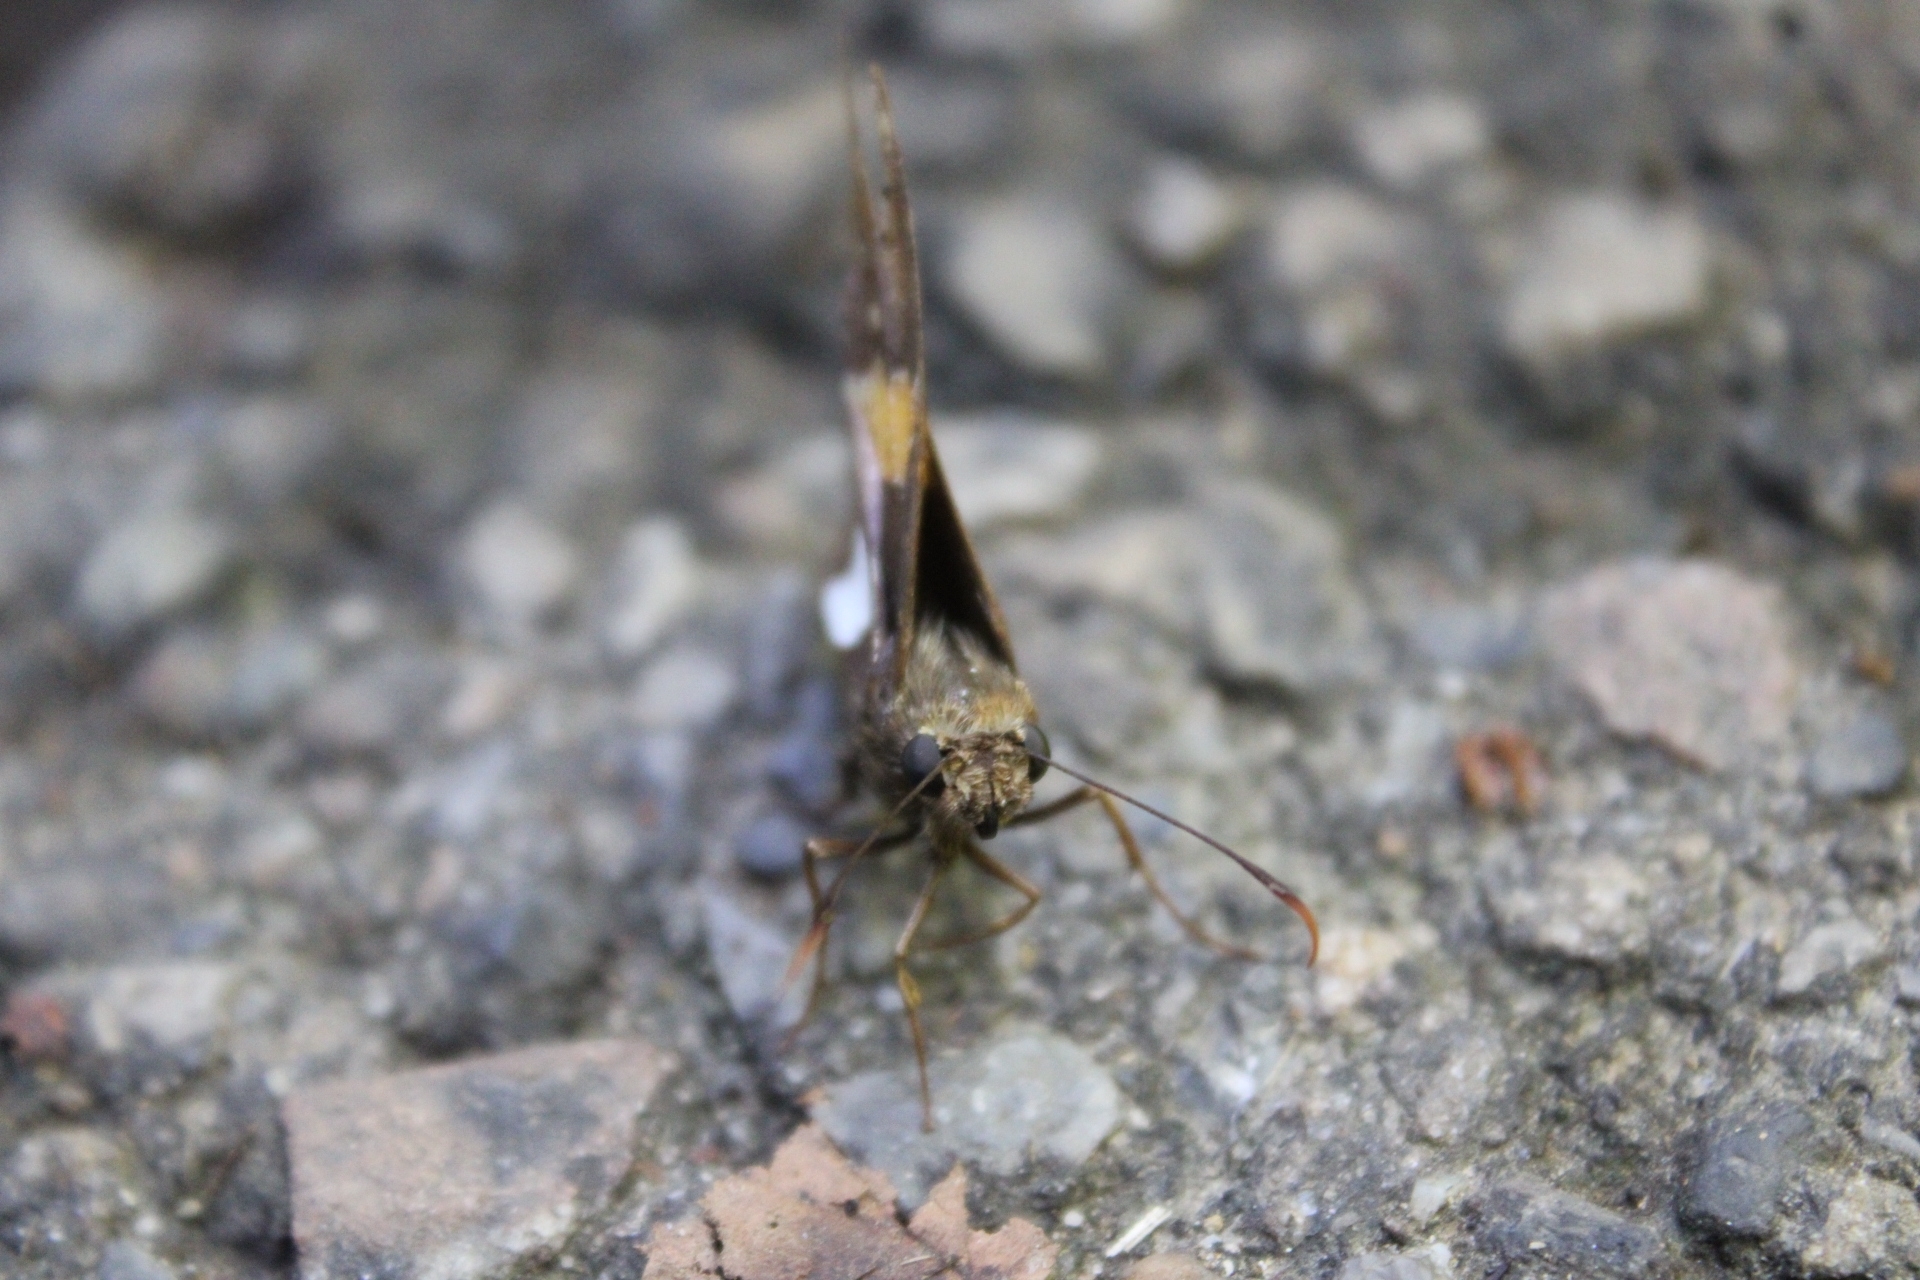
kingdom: Animalia
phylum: Arthropoda
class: Insecta
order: Lepidoptera
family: Hesperiidae
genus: Epargyreus
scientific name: Epargyreus clarus
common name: Silver-spotted skipper
